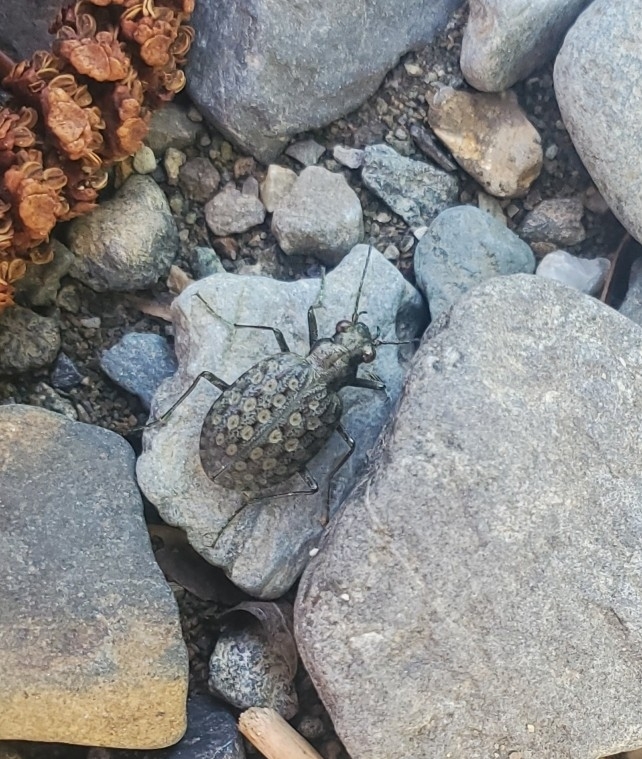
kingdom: Animalia
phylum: Arthropoda
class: Insecta
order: Coleoptera
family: Carabidae
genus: Opisthius
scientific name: Opisthius richardsoni
